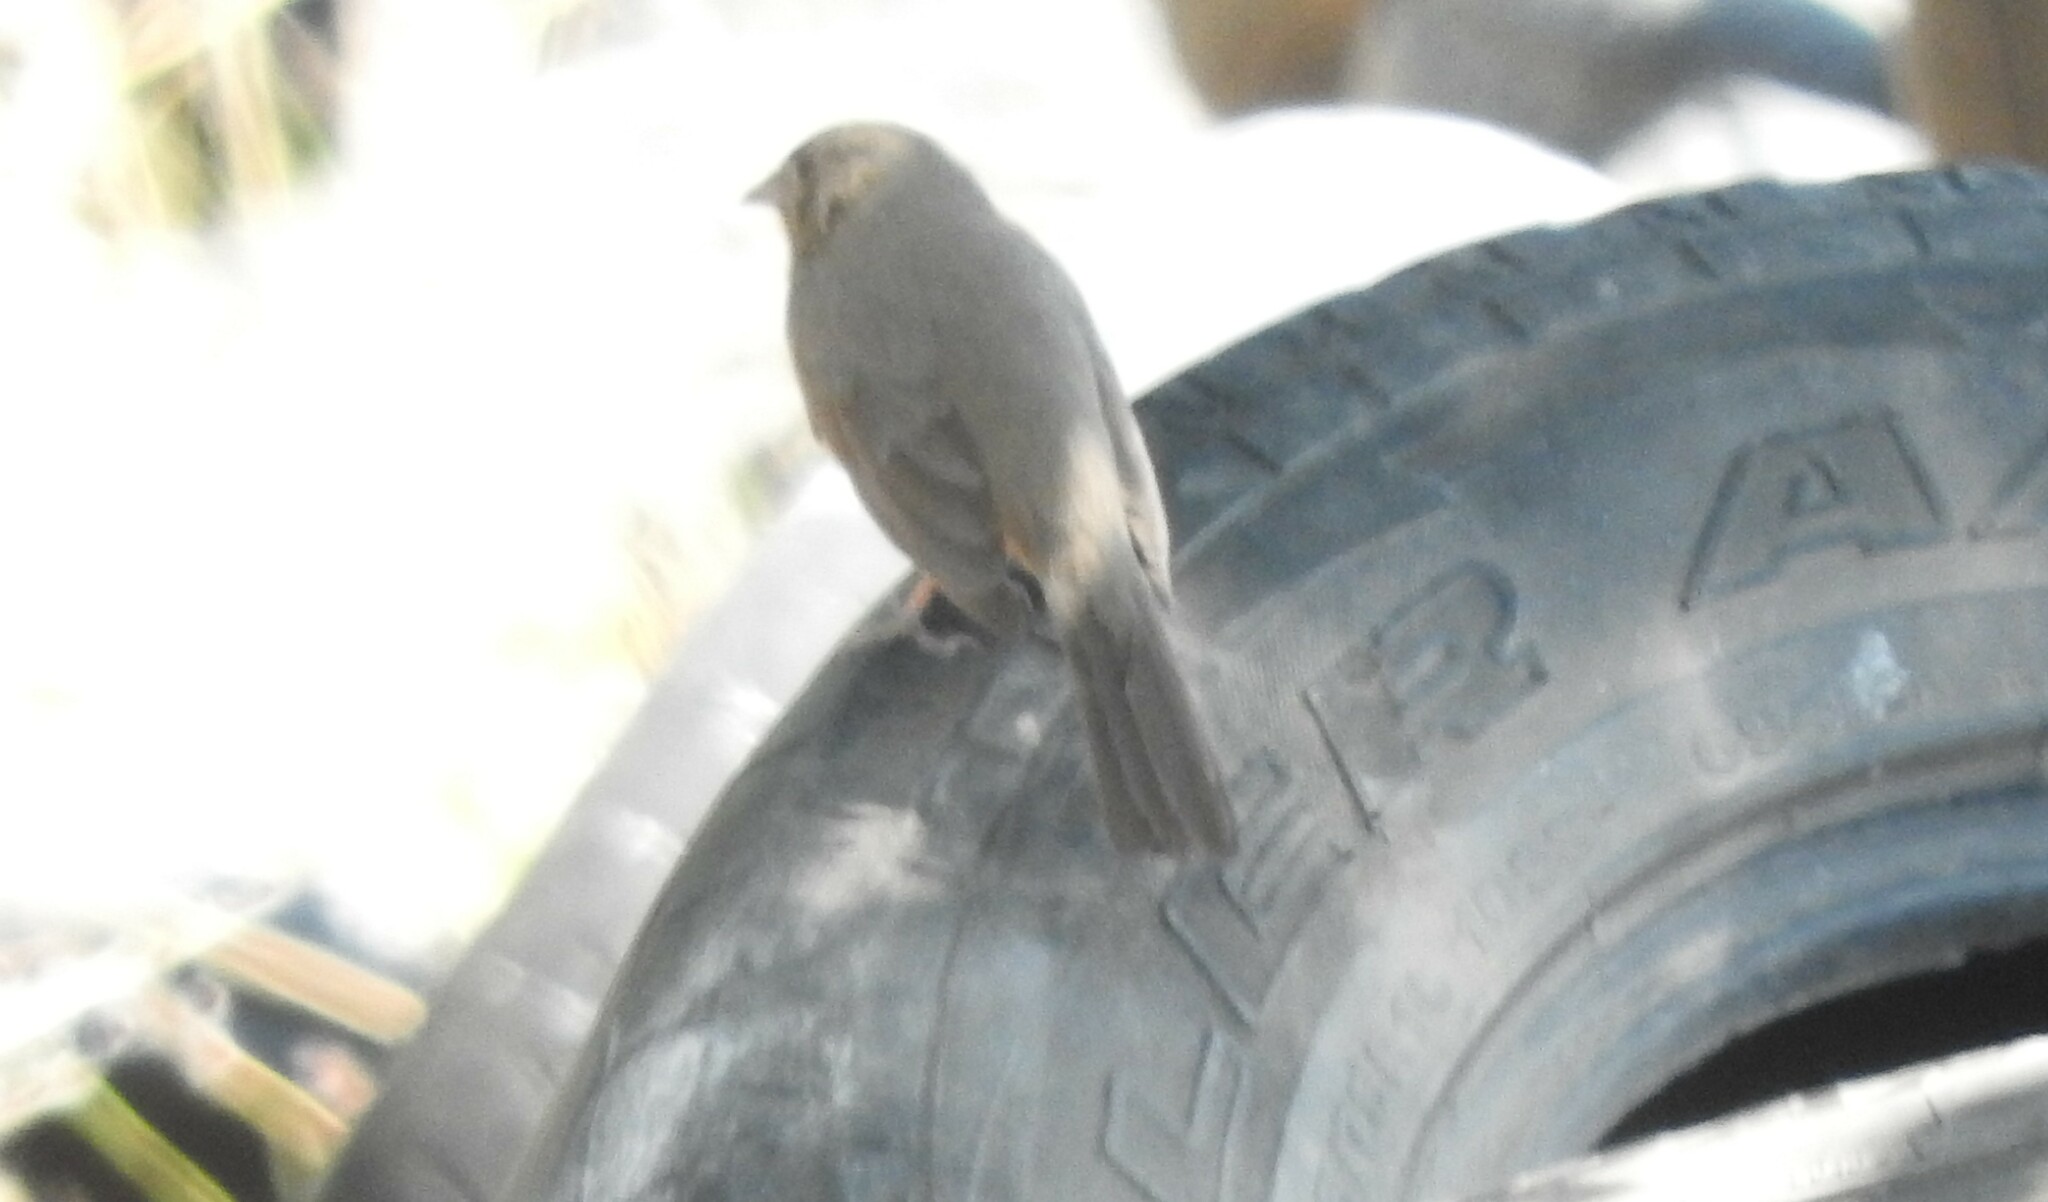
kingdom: Animalia
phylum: Chordata
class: Aves
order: Passeriformes
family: Passerellidae
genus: Melozone
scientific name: Melozone fusca
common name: Canyon towhee
